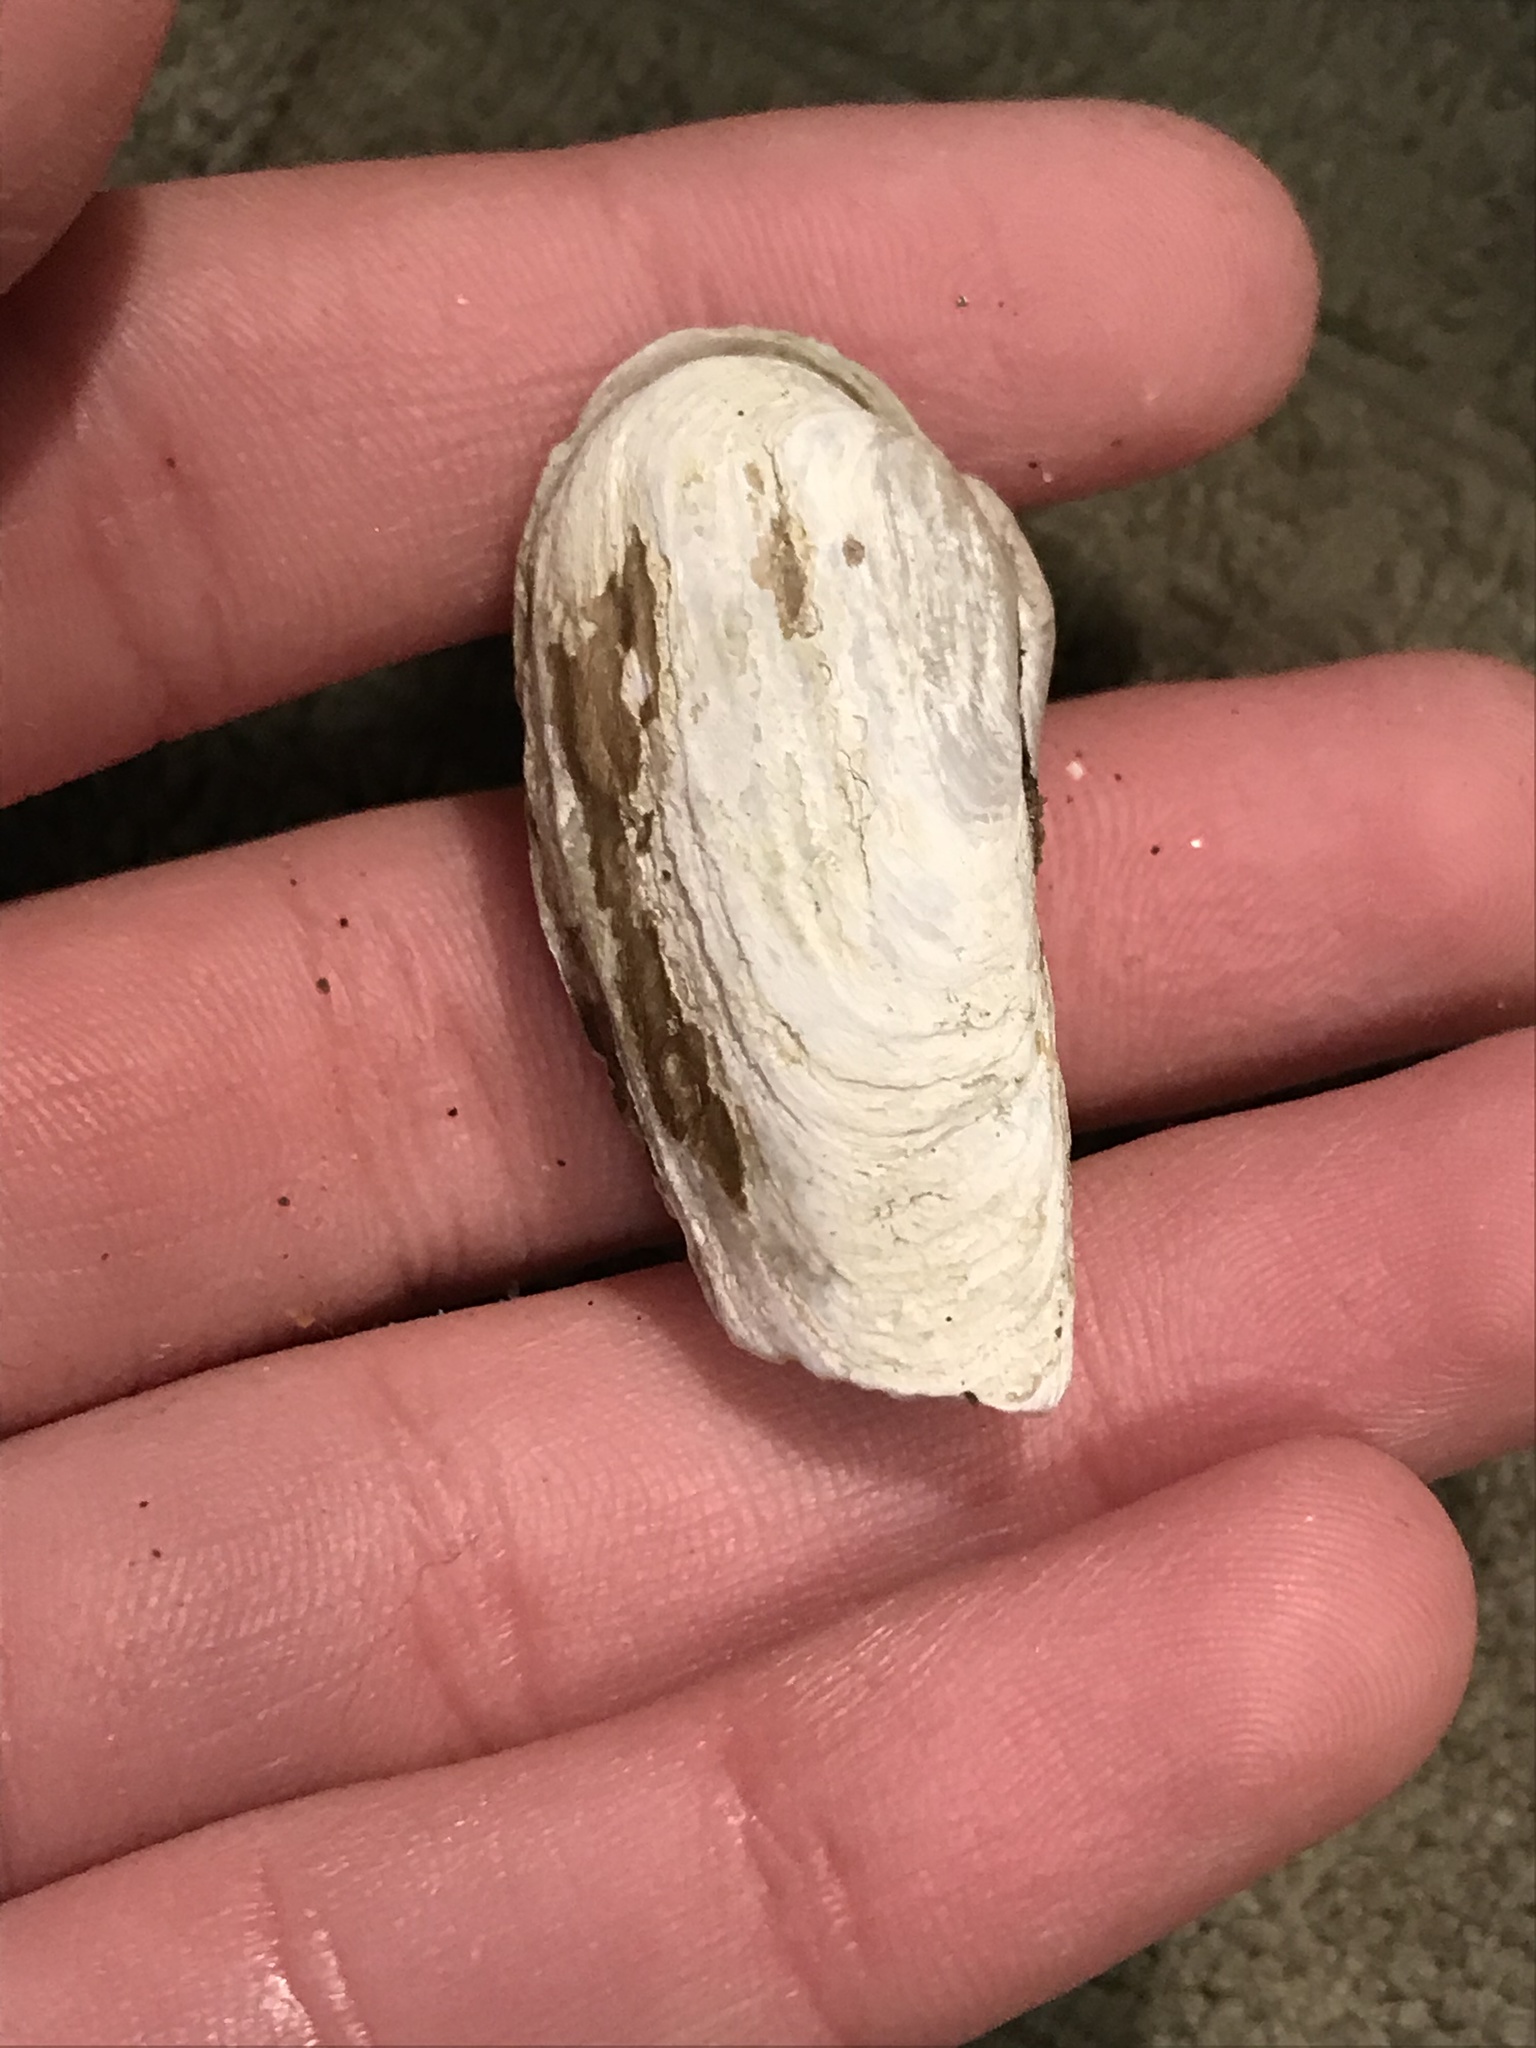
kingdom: Animalia
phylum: Mollusca
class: Bivalvia
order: Adapedonta
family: Hiatellidae
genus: Hiatella
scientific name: Hiatella arctica
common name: Arctic hiatella
